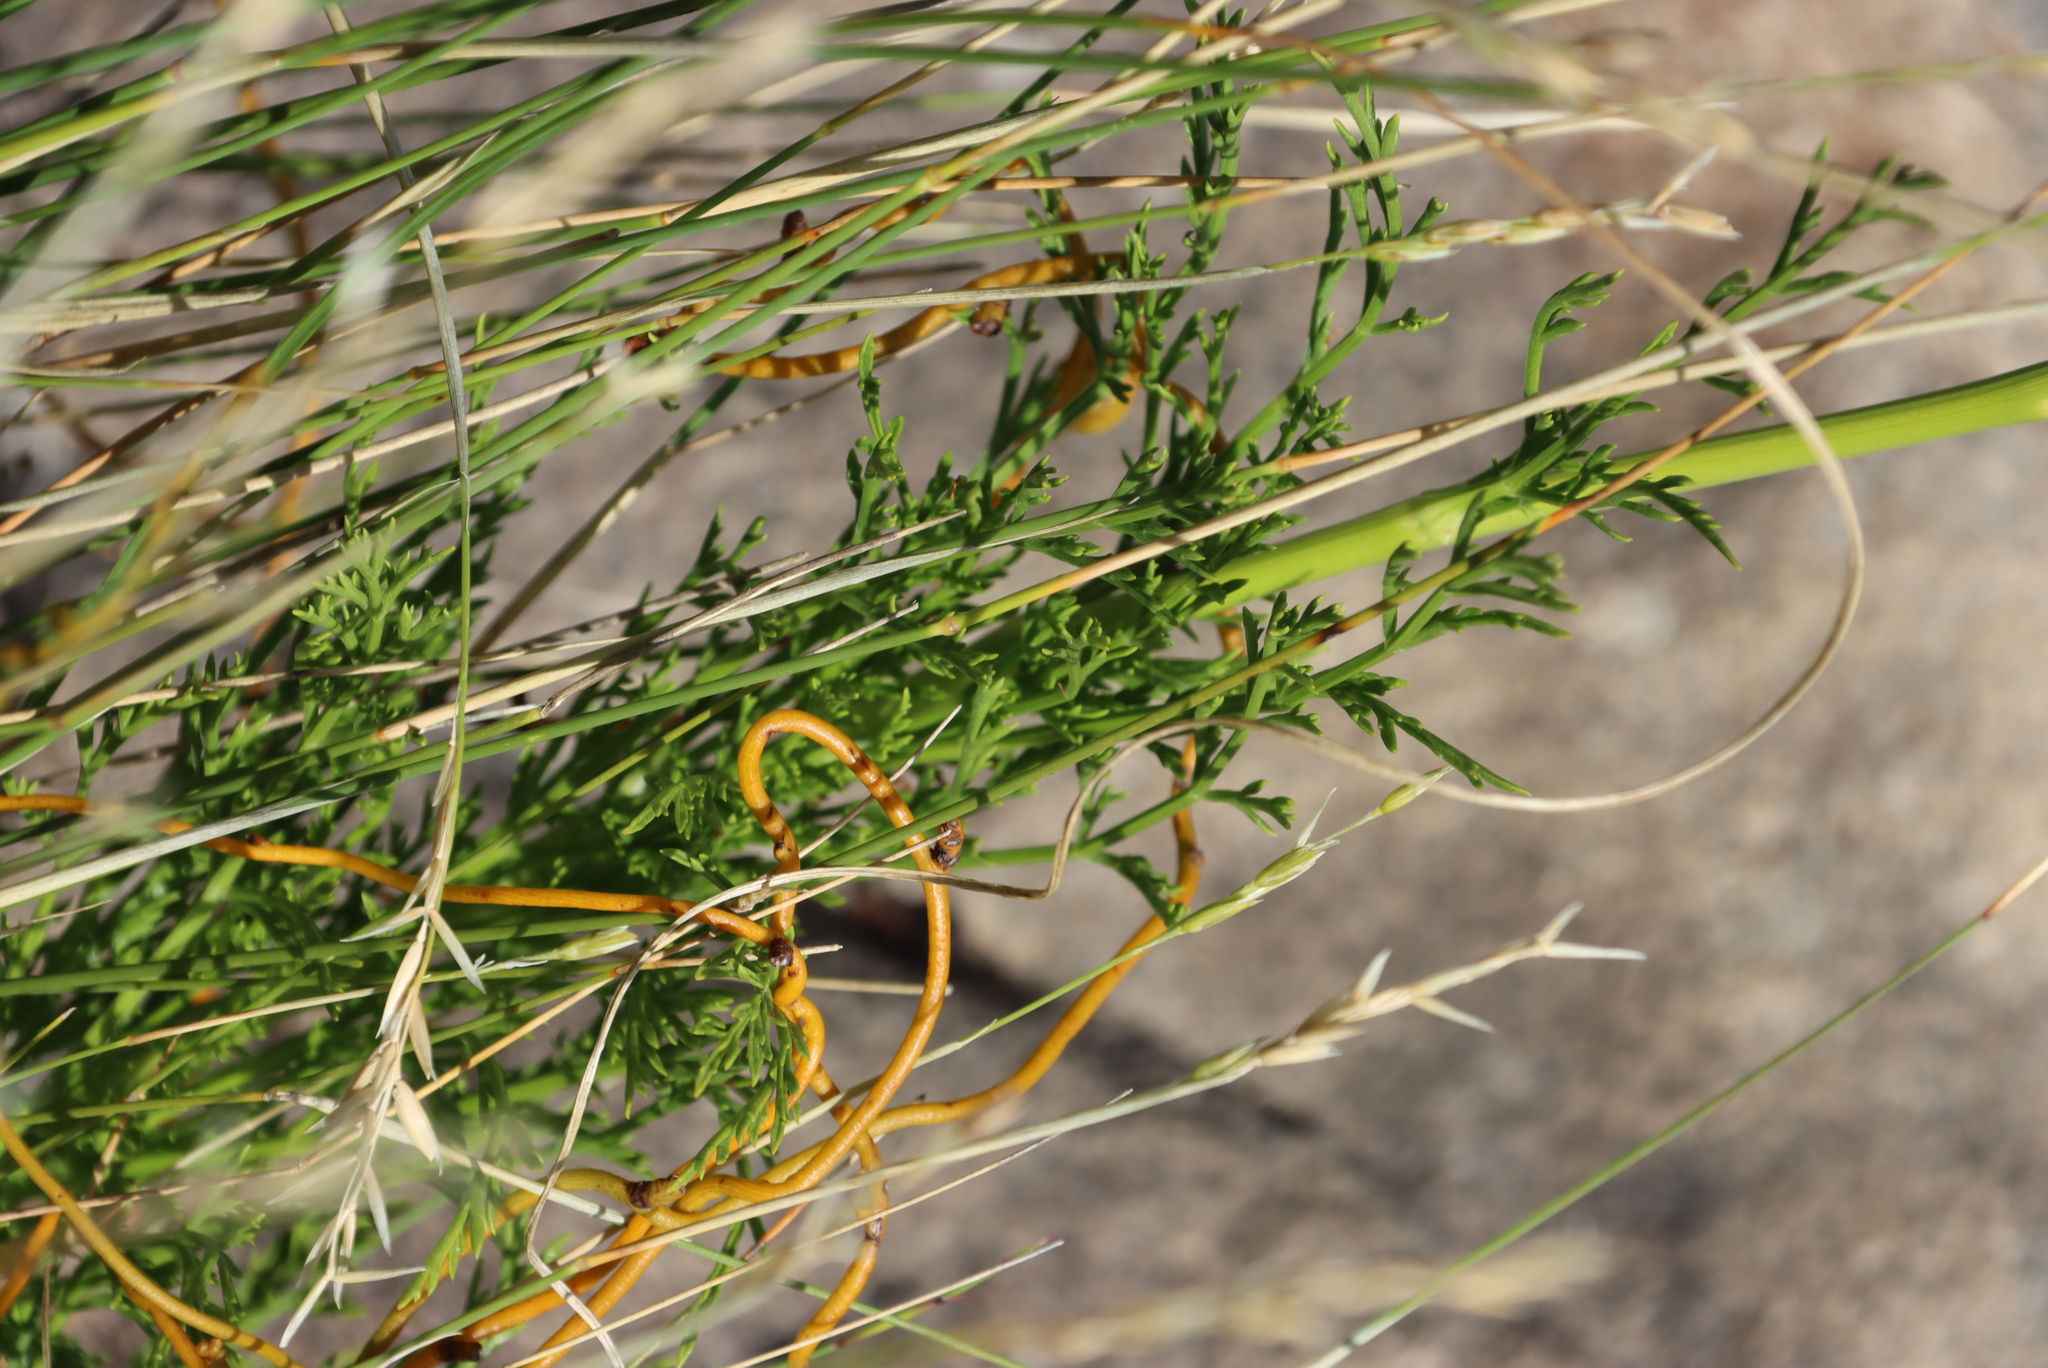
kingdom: Plantae
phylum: Tracheophyta
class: Magnoliopsida
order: Apiales
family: Apiaceae
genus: Glia
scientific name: Glia prolifera
